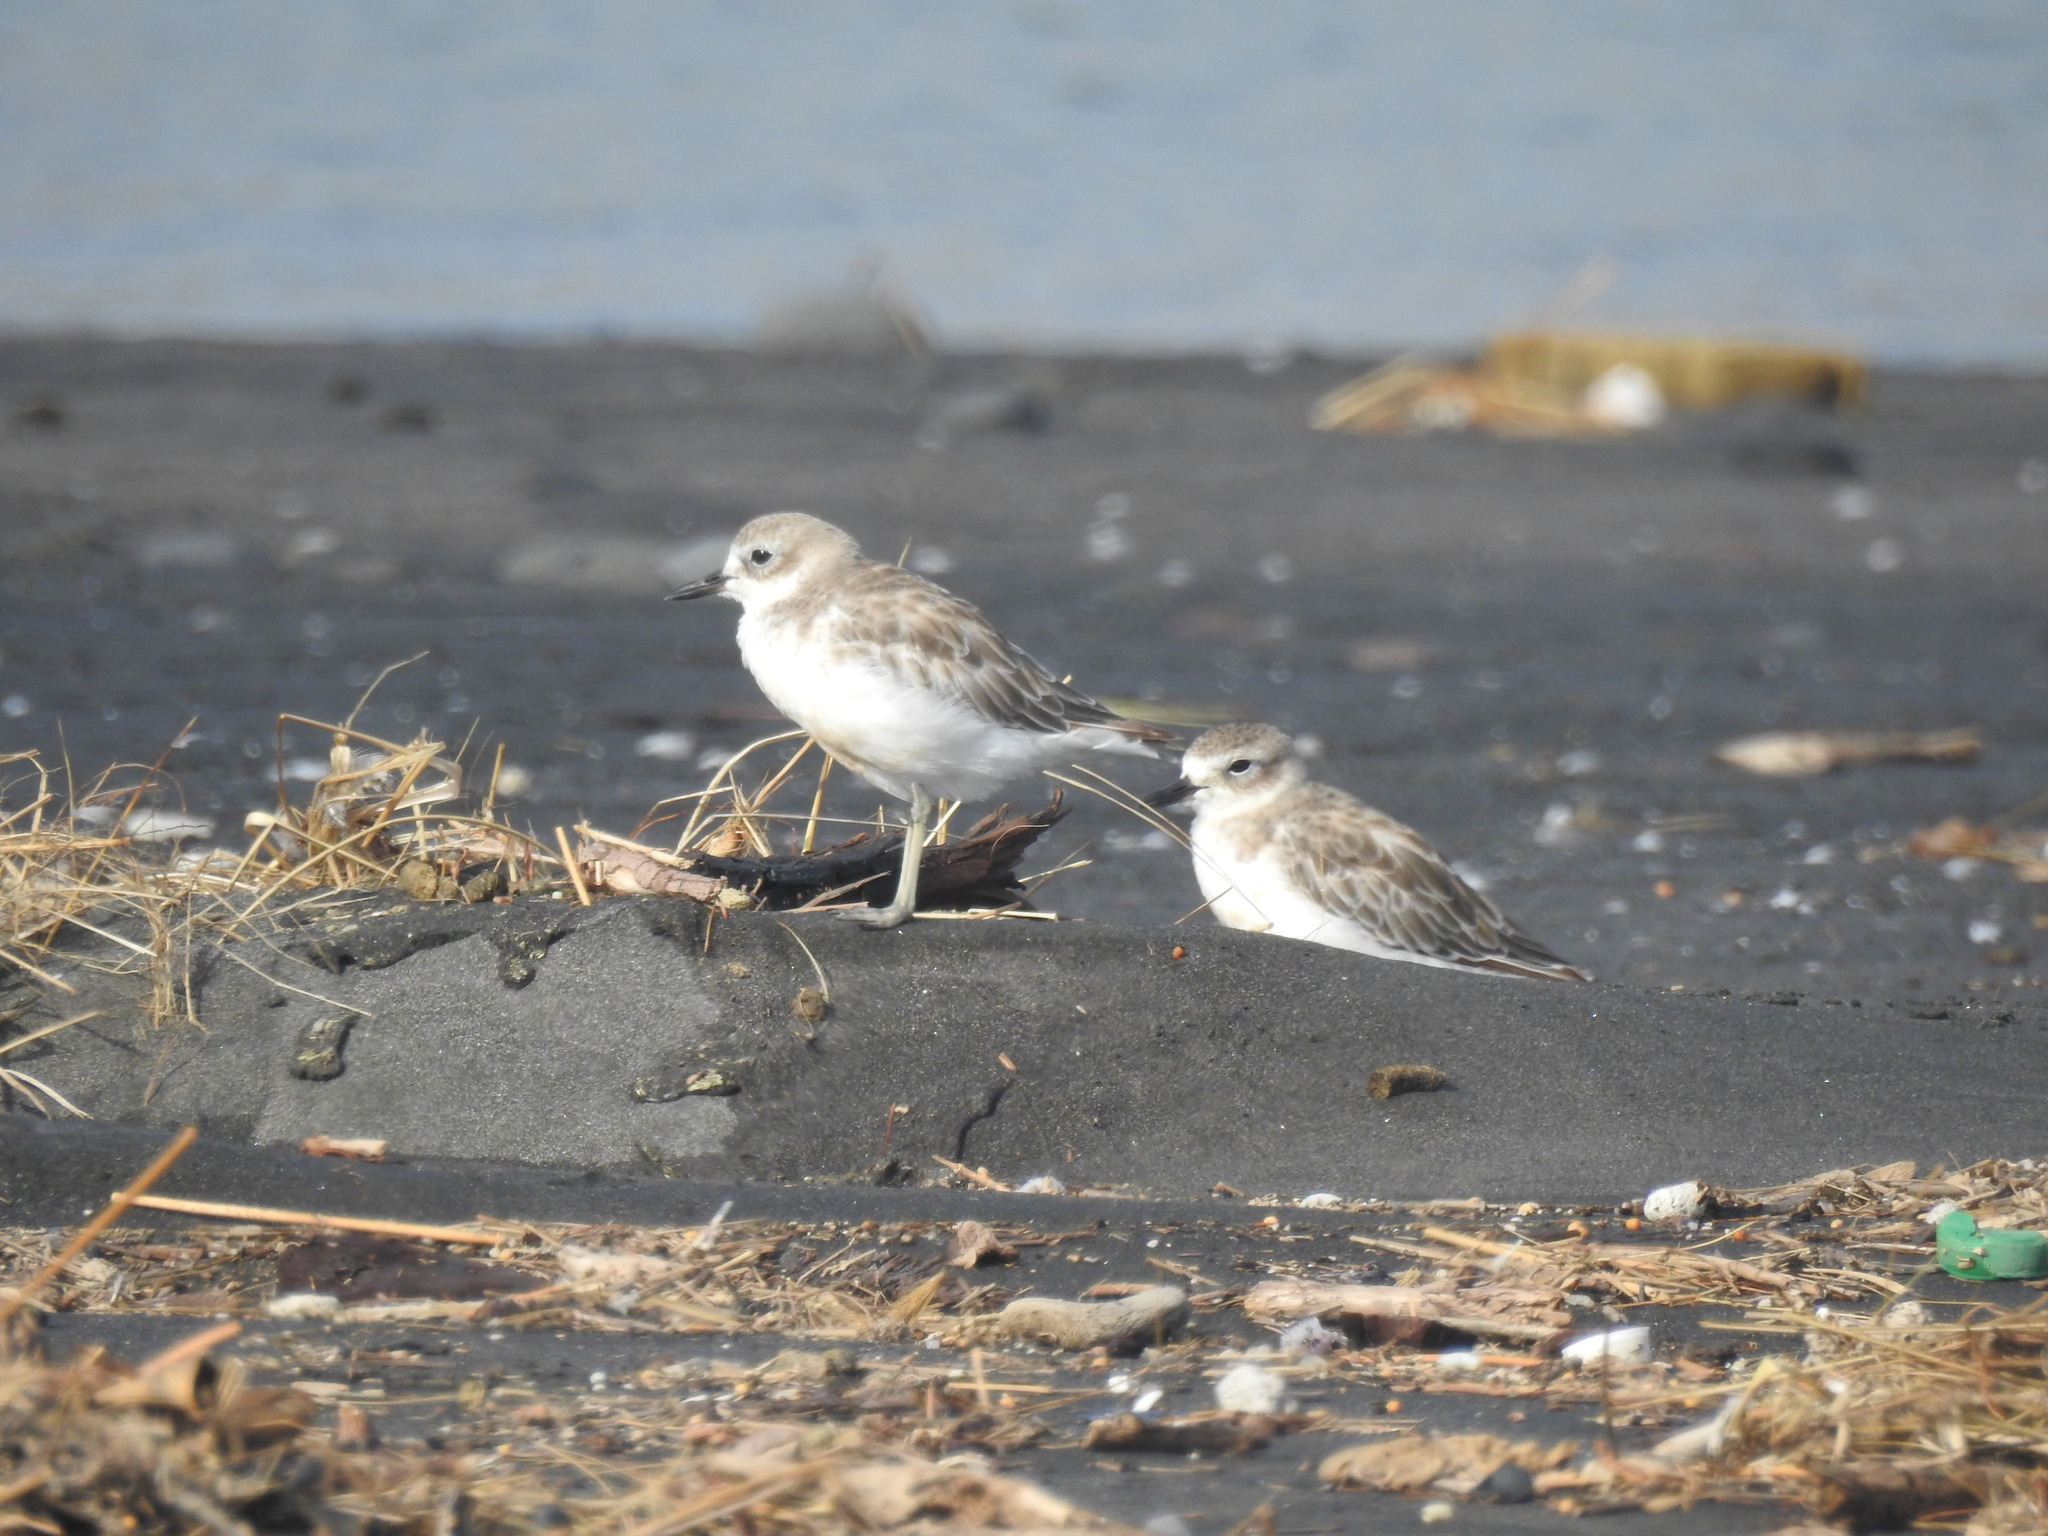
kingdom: Animalia
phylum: Chordata
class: Aves
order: Charadriiformes
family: Charadriidae
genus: Anarhynchus
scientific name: Anarhynchus
